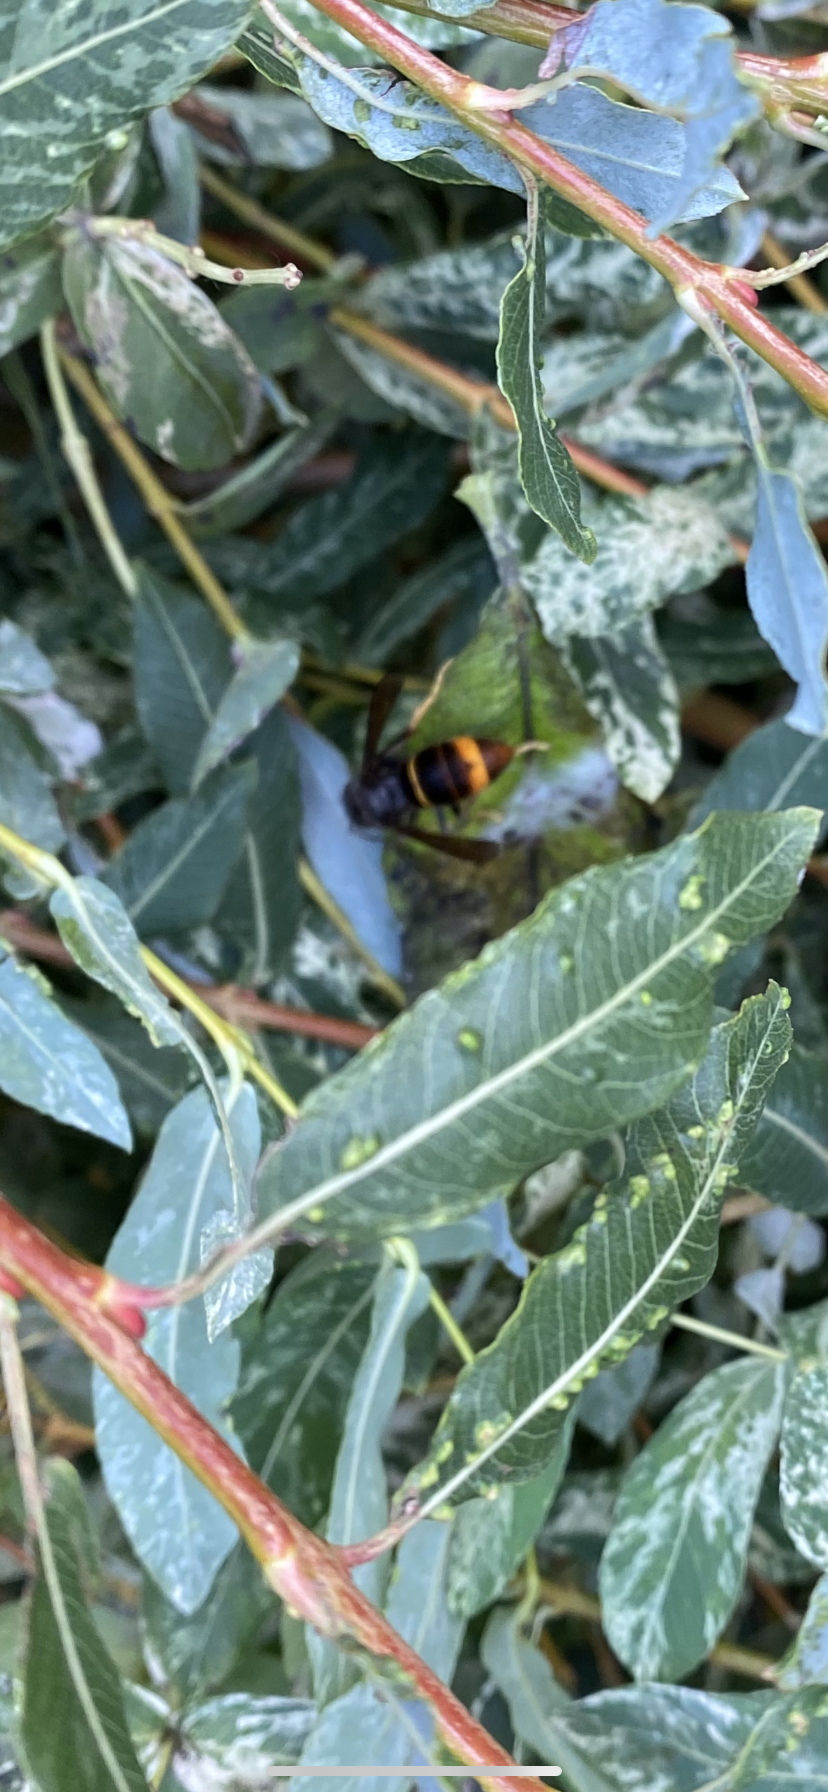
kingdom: Animalia
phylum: Arthropoda
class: Insecta
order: Hymenoptera
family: Vespidae
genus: Vespa
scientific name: Vespa velutina
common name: Asian hornet
